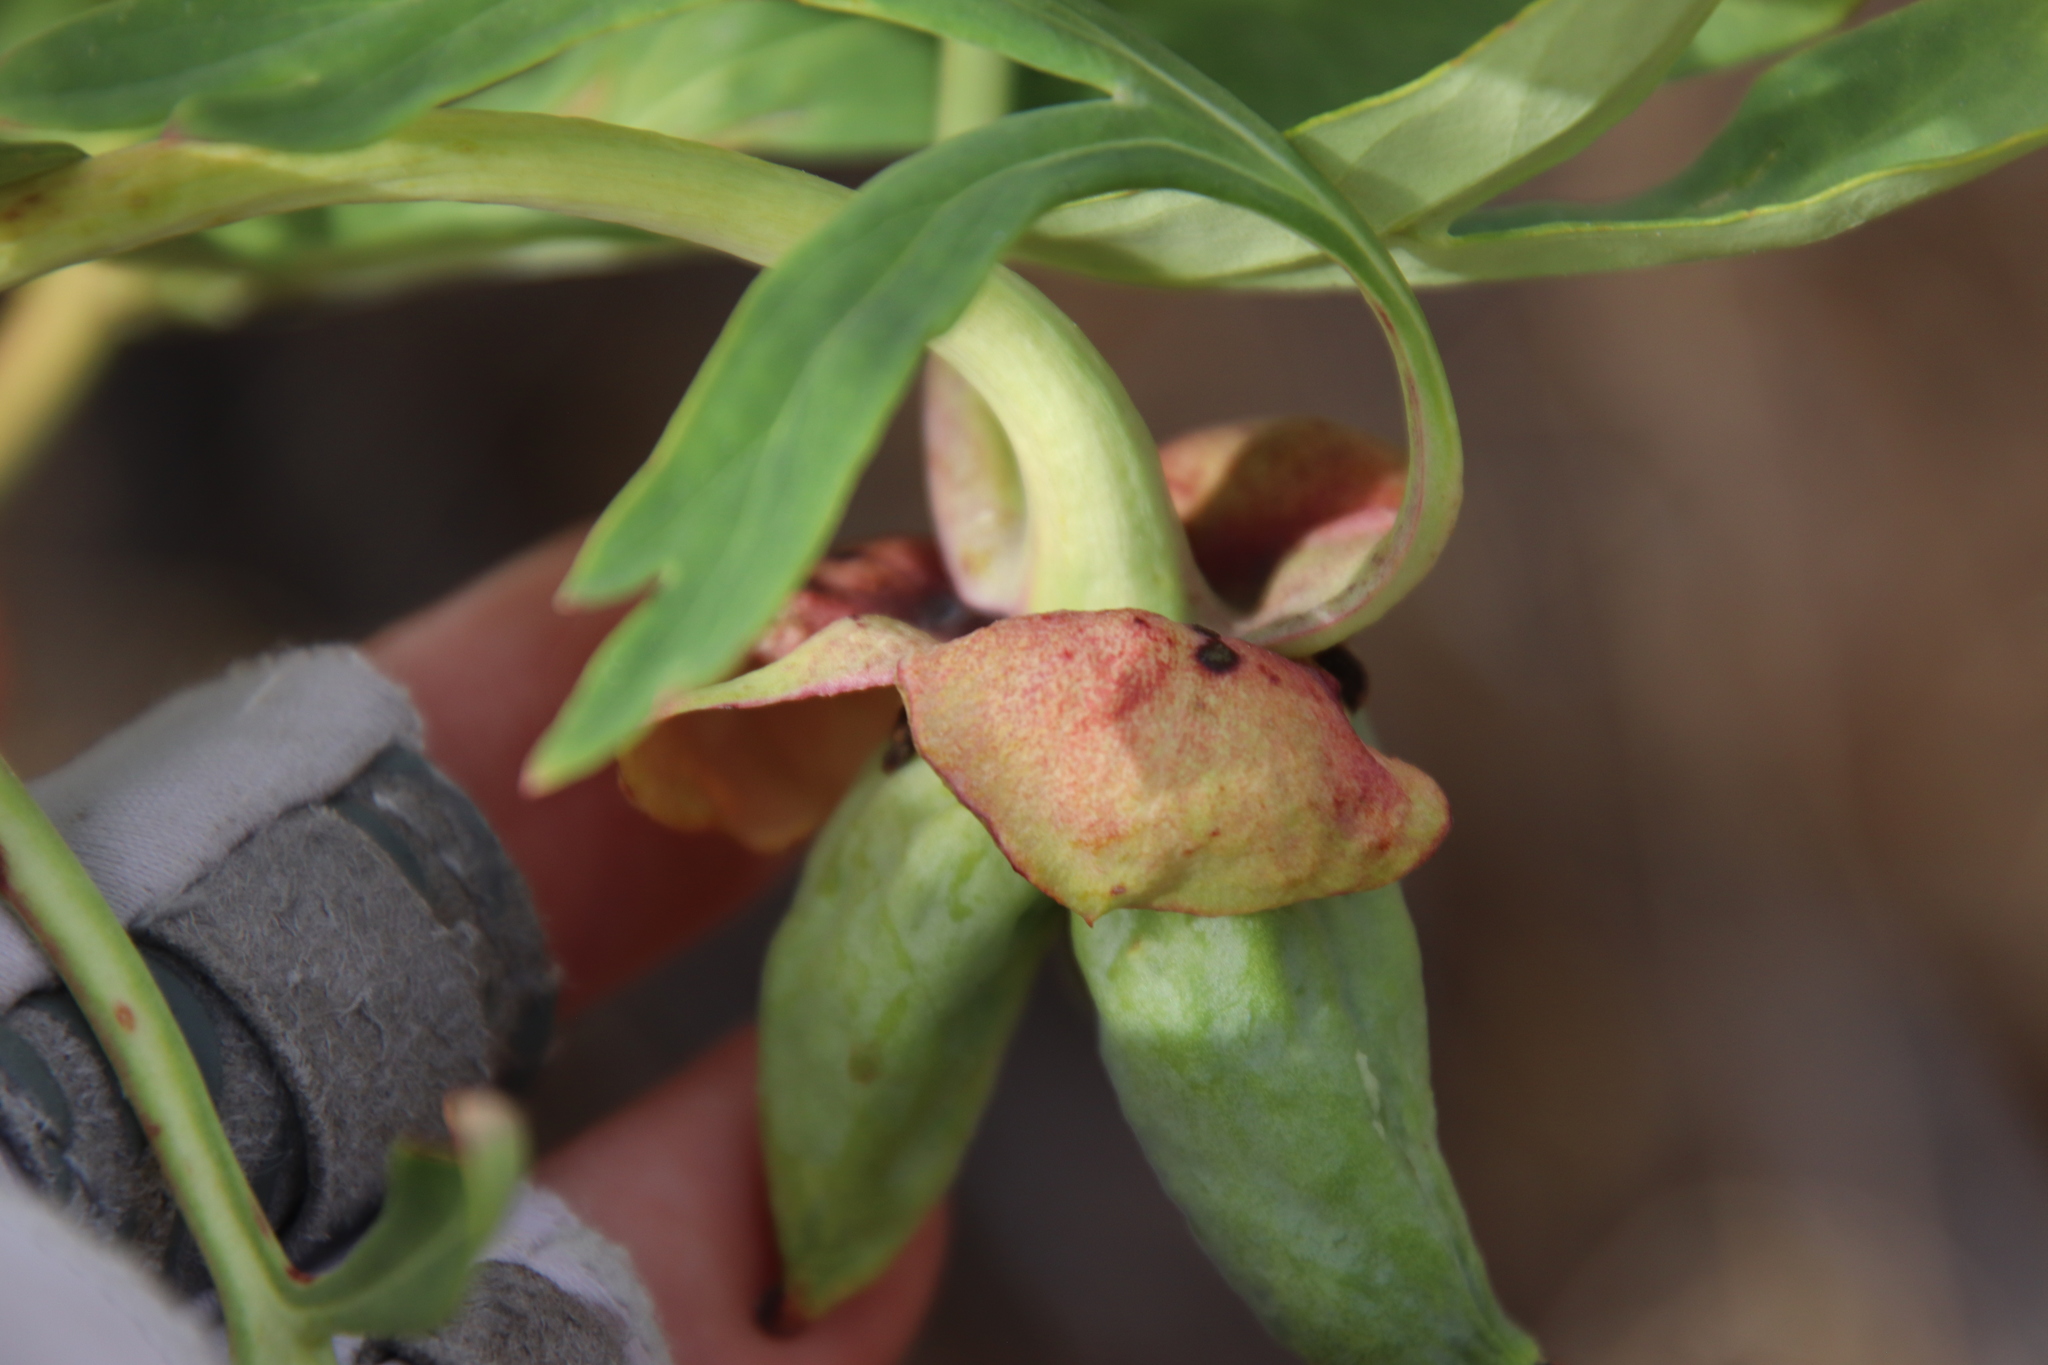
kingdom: Plantae
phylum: Tracheophyta
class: Magnoliopsida
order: Saxifragales
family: Paeoniaceae
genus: Paeonia
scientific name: Paeonia californica
